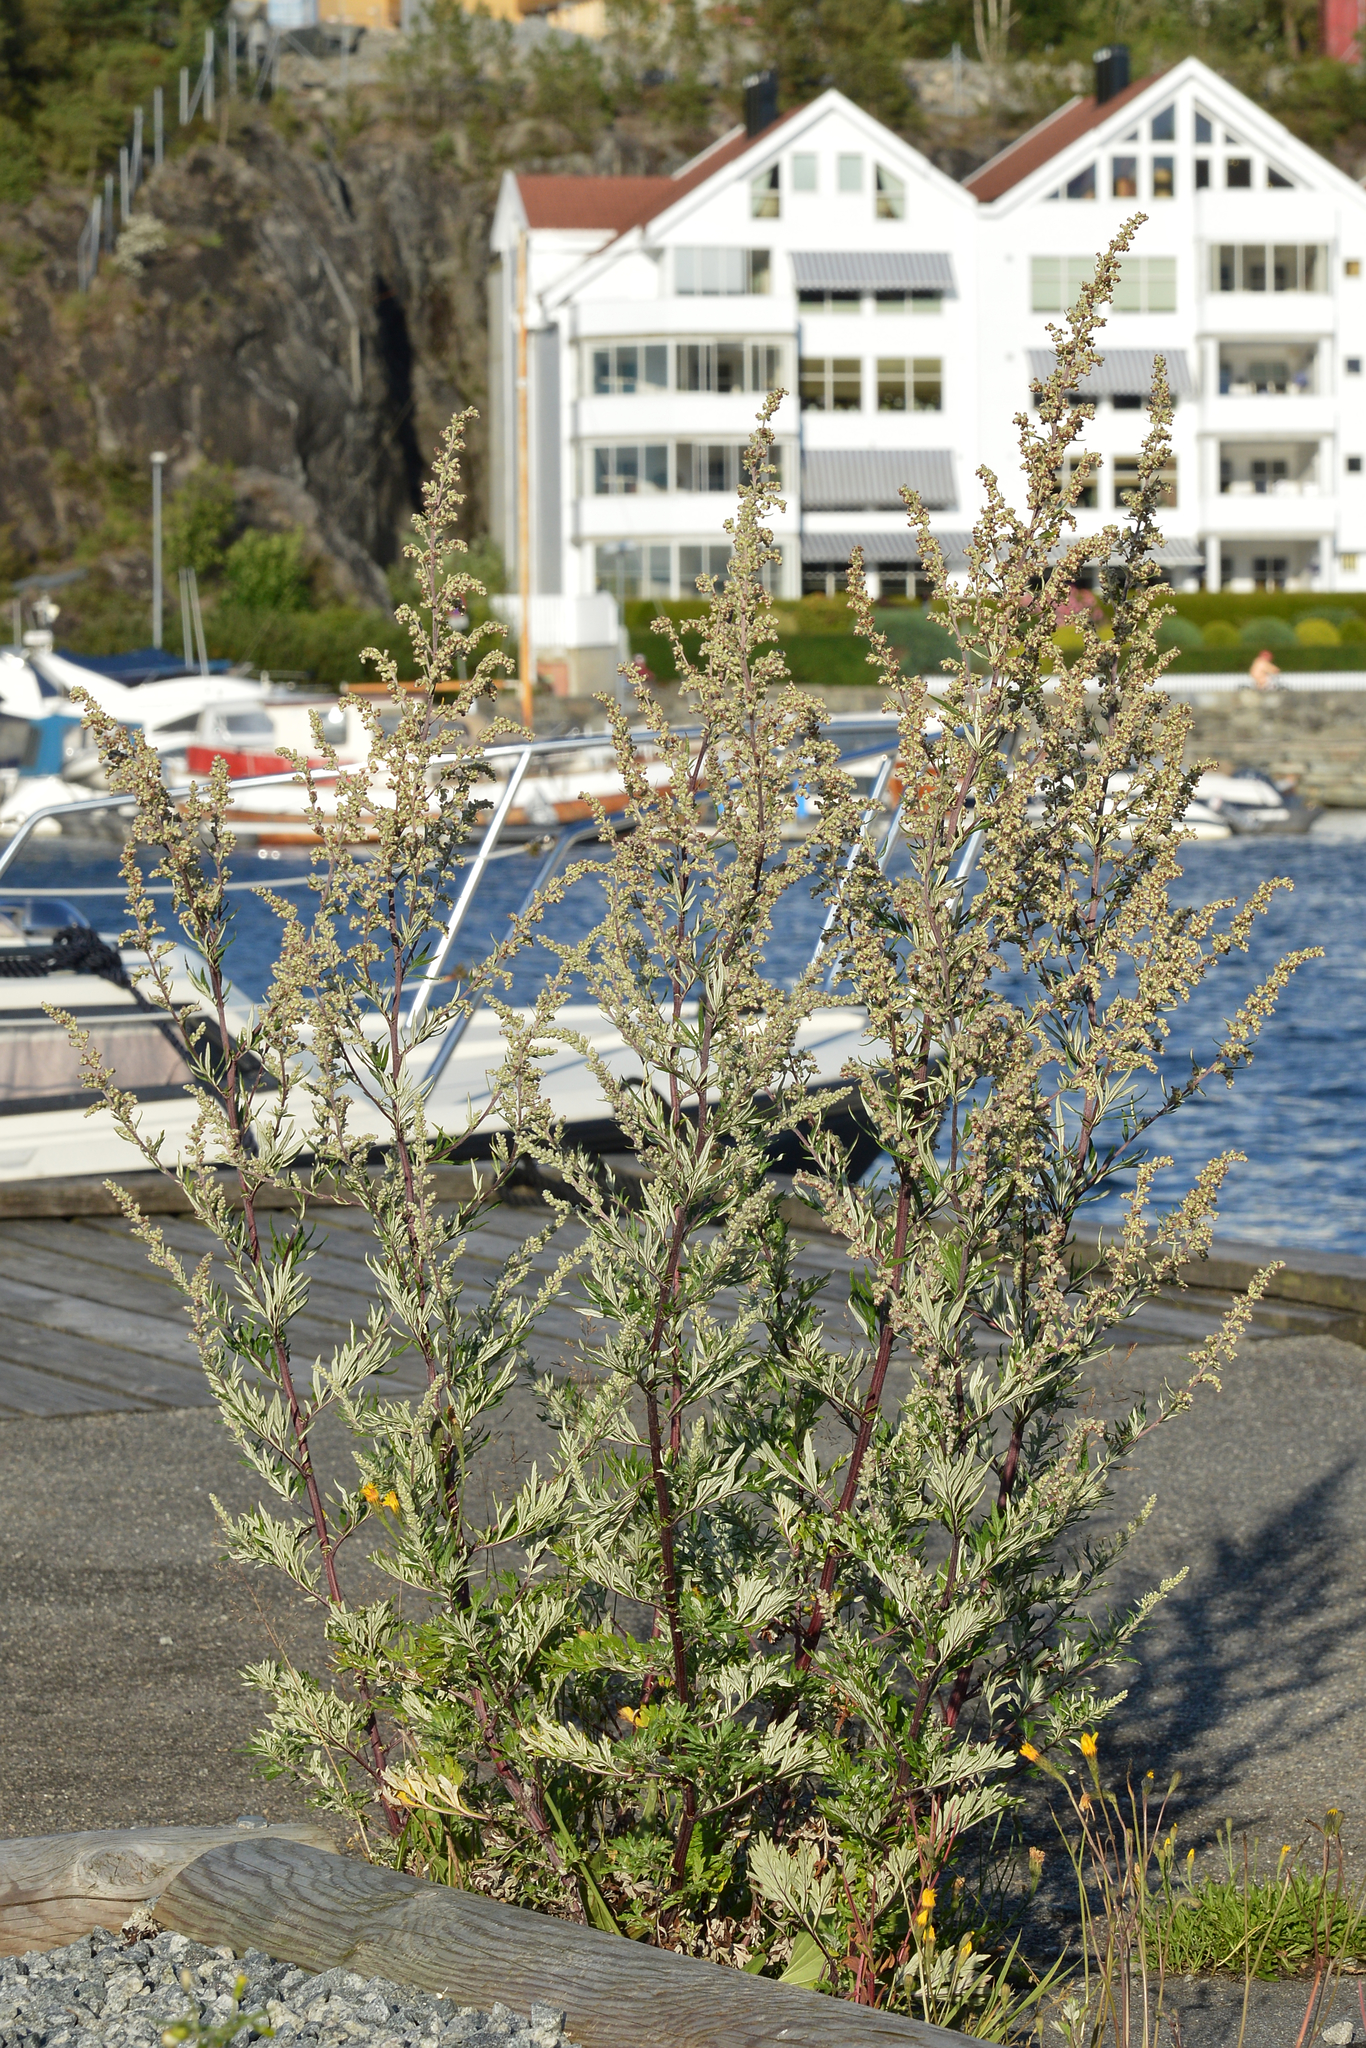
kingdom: Plantae
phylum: Tracheophyta
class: Magnoliopsida
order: Asterales
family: Asteraceae
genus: Artemisia
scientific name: Artemisia vulgaris
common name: Mugwort
